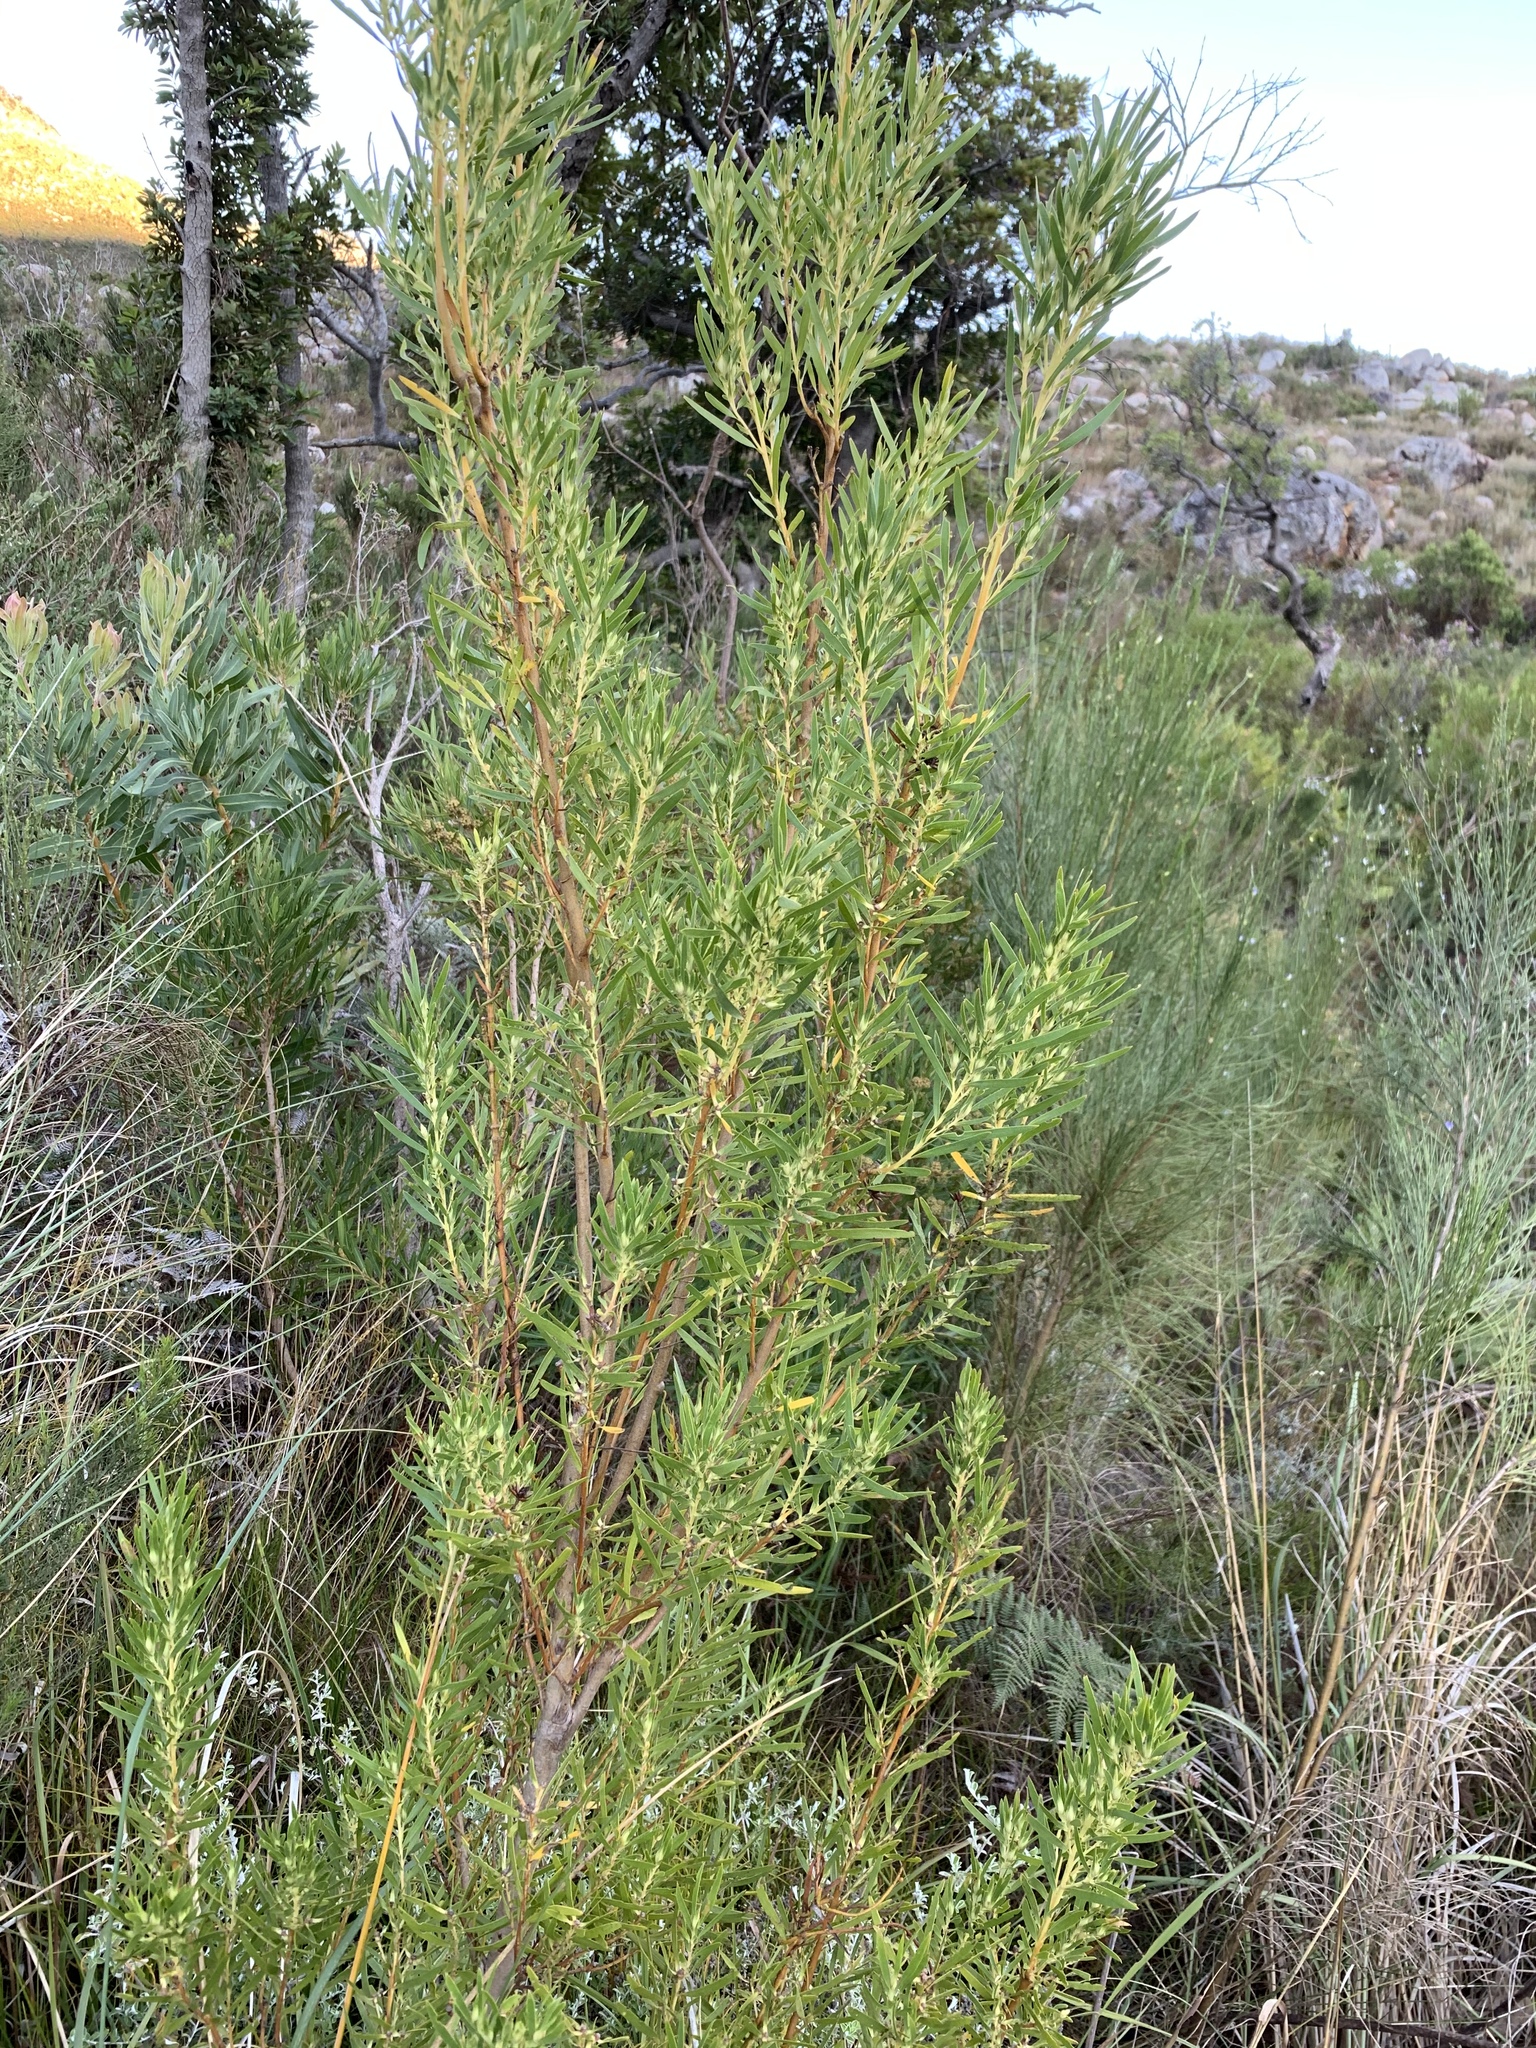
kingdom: Plantae
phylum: Tracheophyta
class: Magnoliopsida
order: Proteales
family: Proteaceae
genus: Leucadendron
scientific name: Leucadendron salicifolium
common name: Common stream conebush
